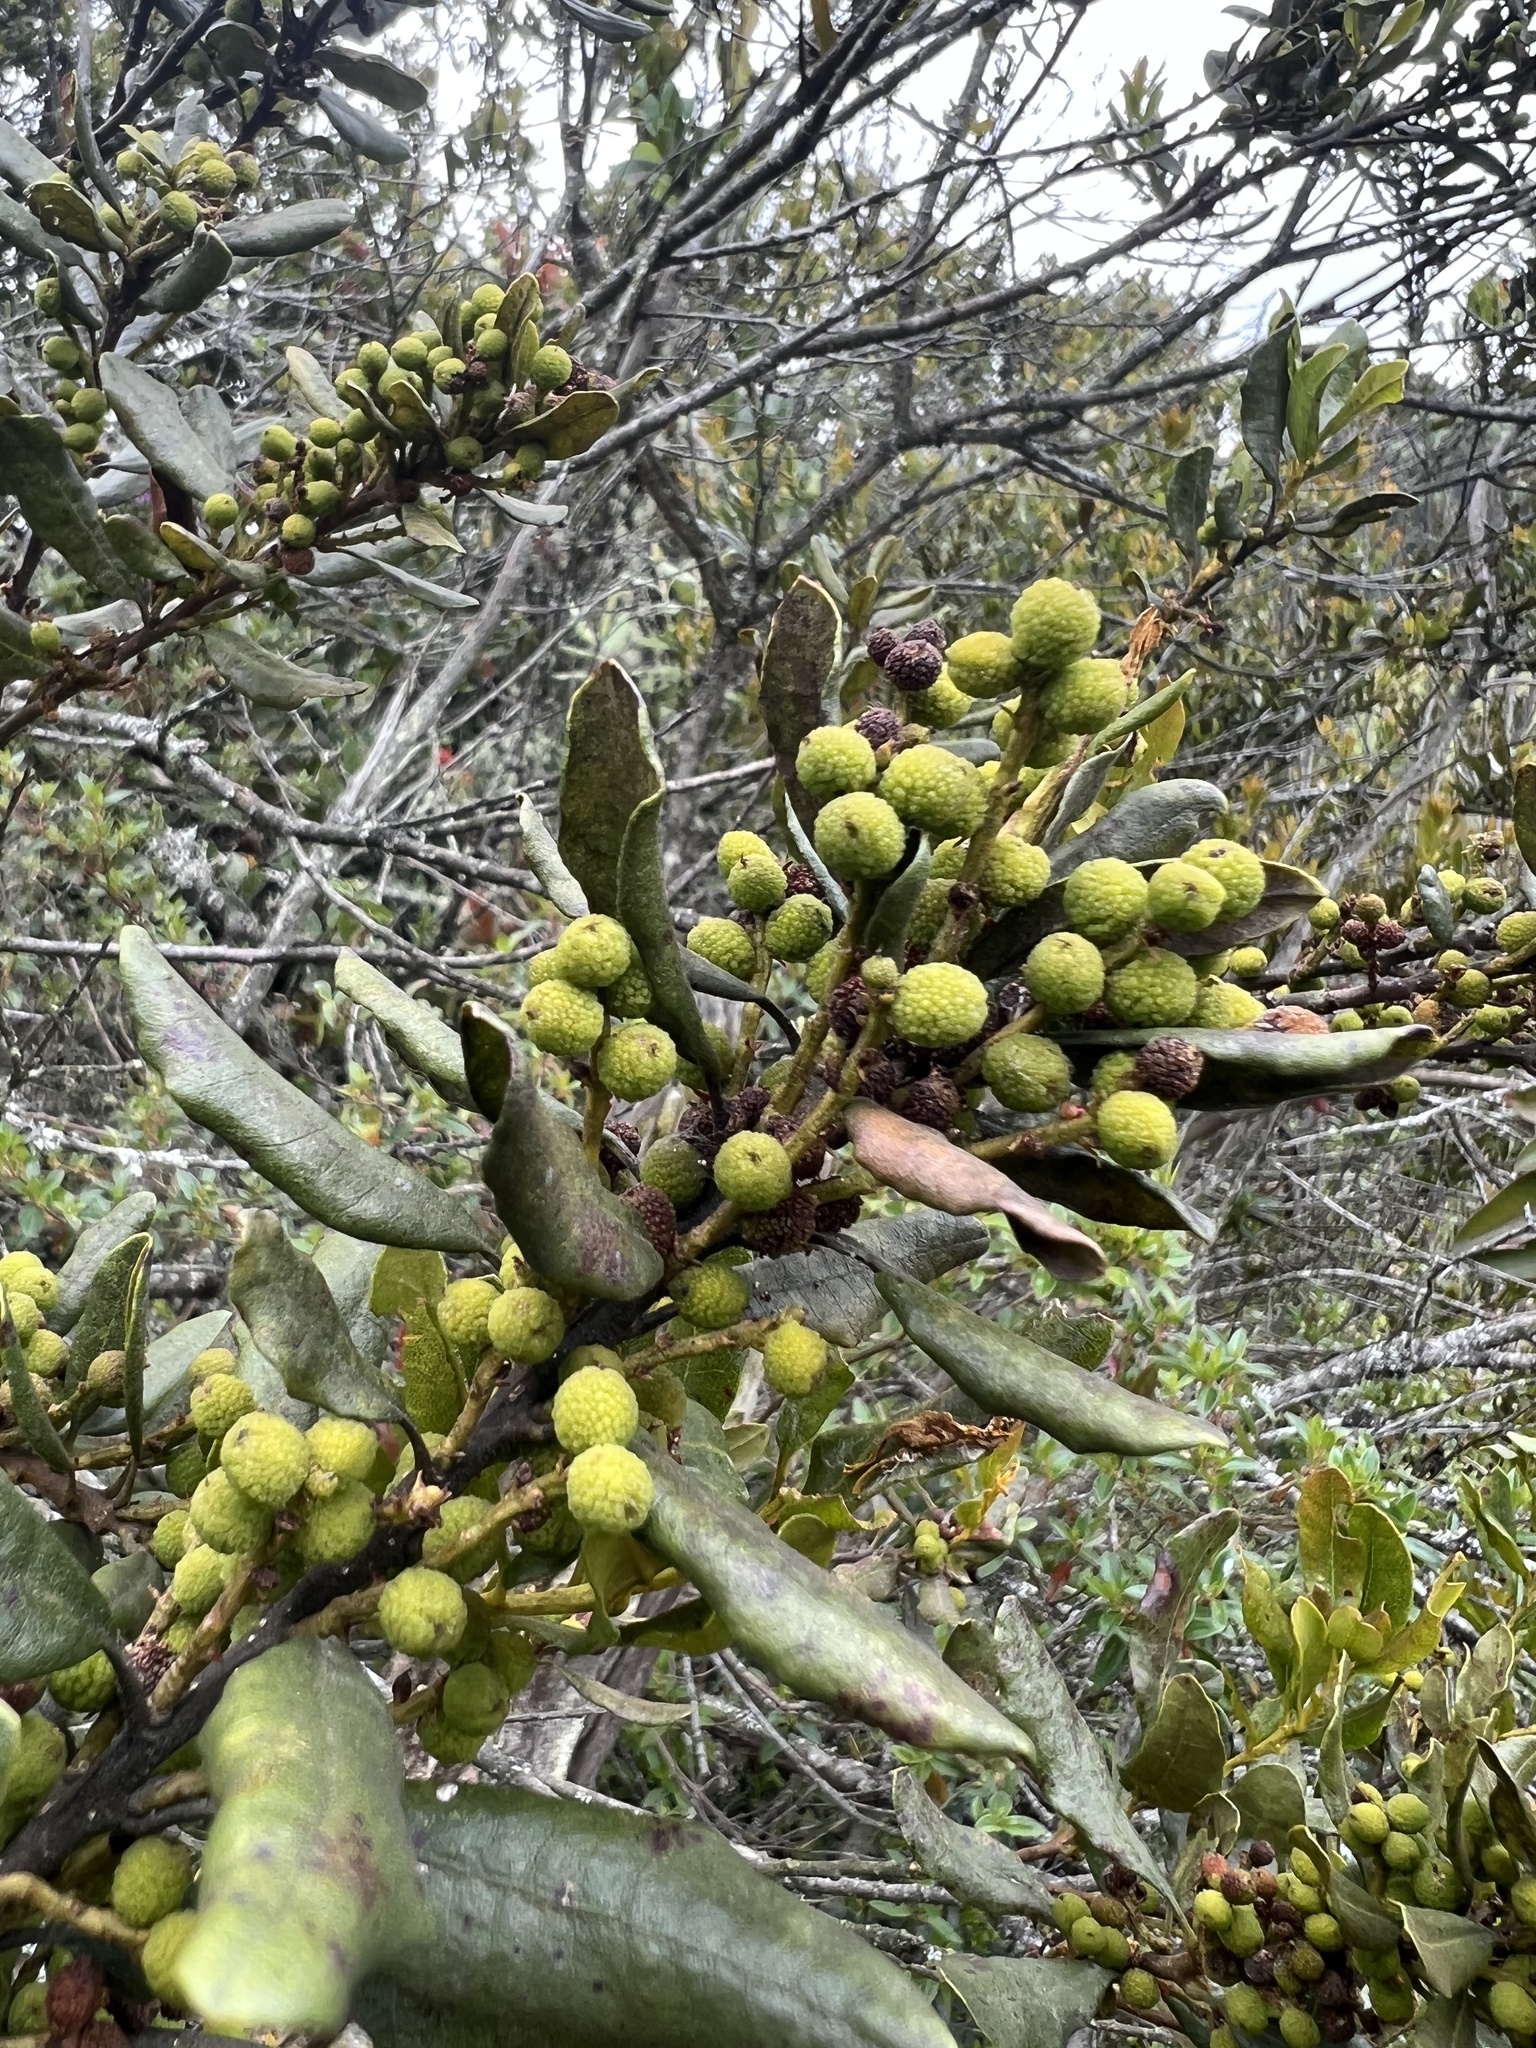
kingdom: Plantae
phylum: Tracheophyta
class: Magnoliopsida
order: Fagales
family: Myricaceae
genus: Morella
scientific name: Morella parvifolia
